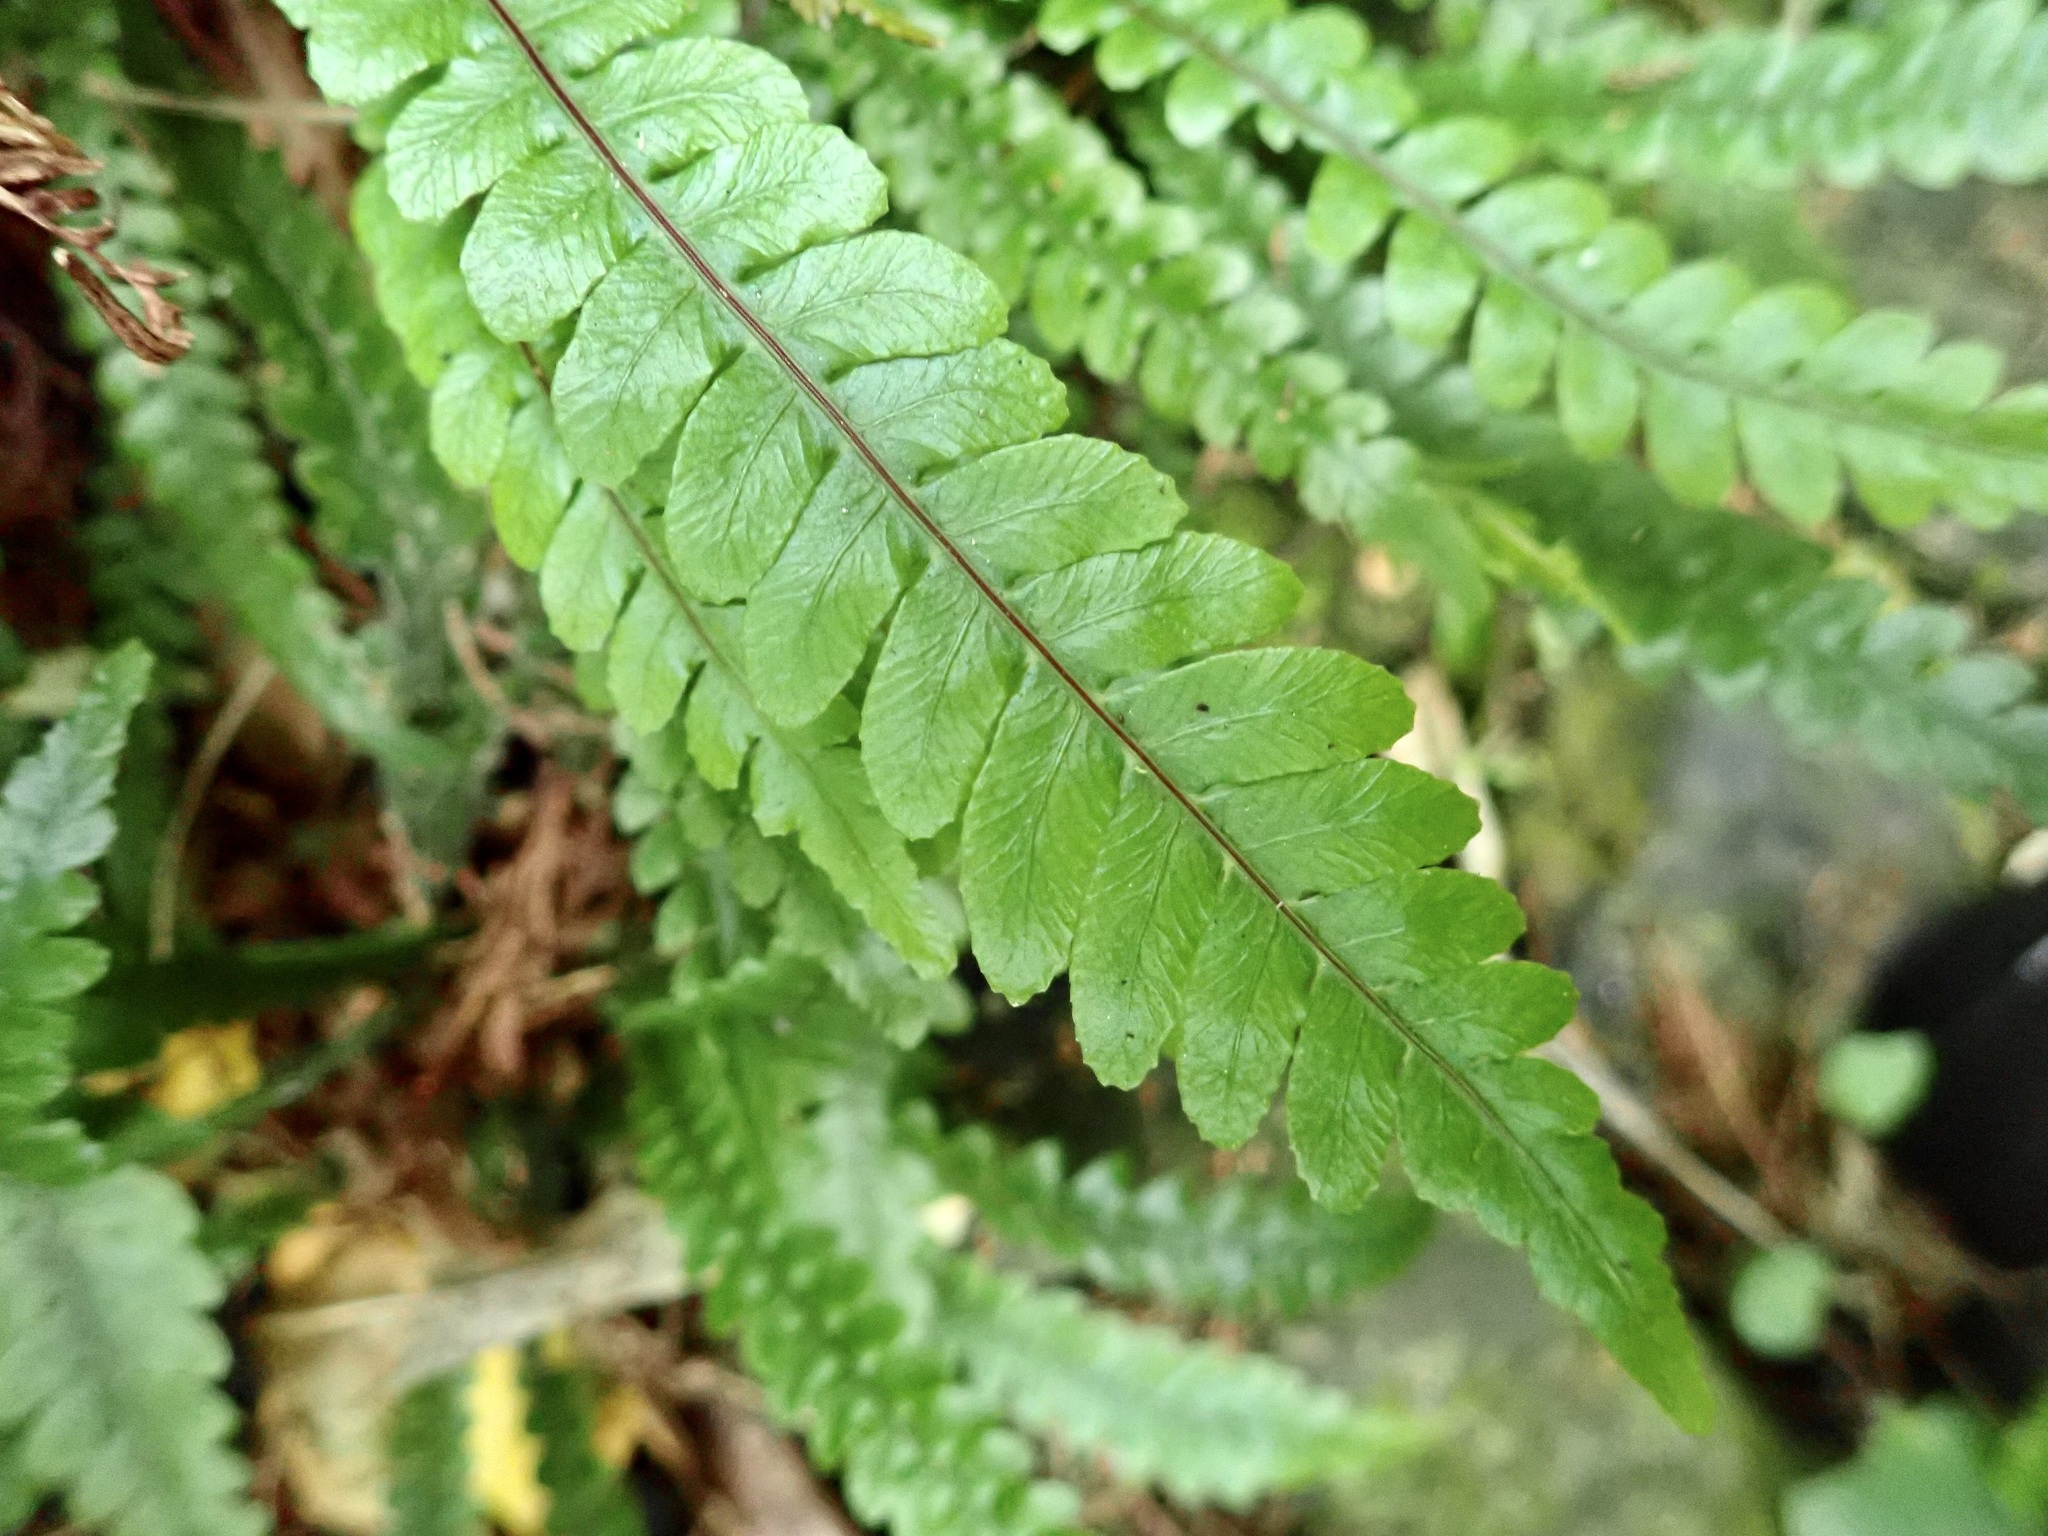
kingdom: Plantae
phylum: Tracheophyta
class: Polypodiopsida
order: Polypodiales
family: Blechnaceae
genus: Austroblechnum
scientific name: Austroblechnum lanceolatum
